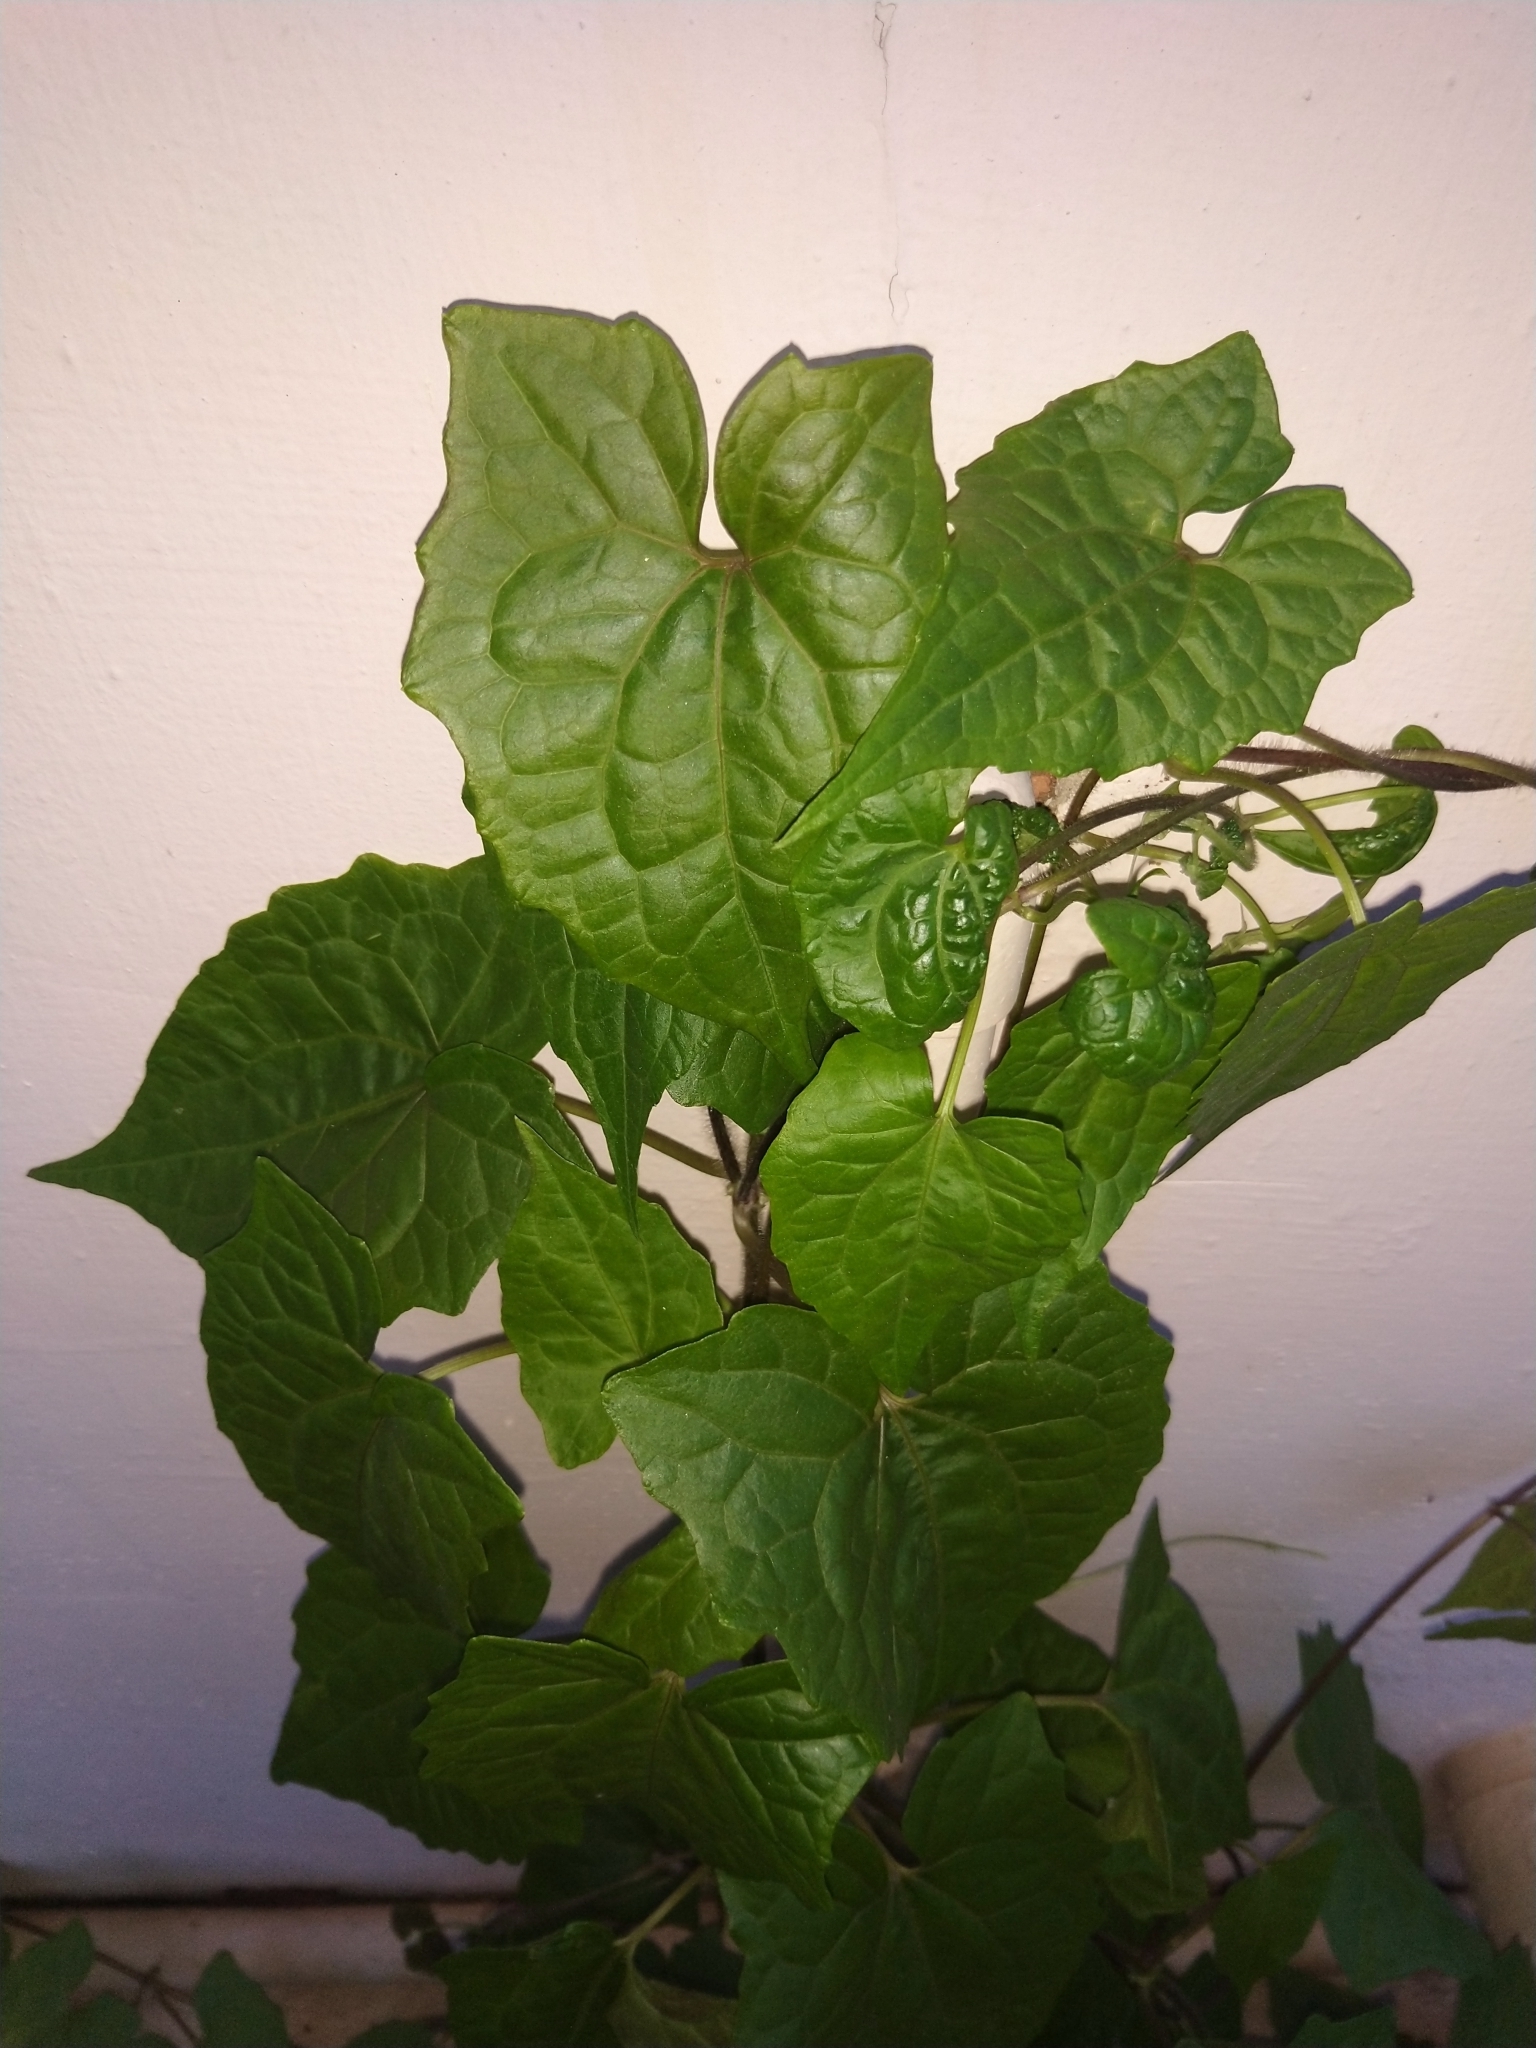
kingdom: Plantae
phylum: Tracheophyta
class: Magnoliopsida
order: Asterales
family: Asteraceae
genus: Mikania
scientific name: Mikania micrantha
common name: Mile-a-minute
